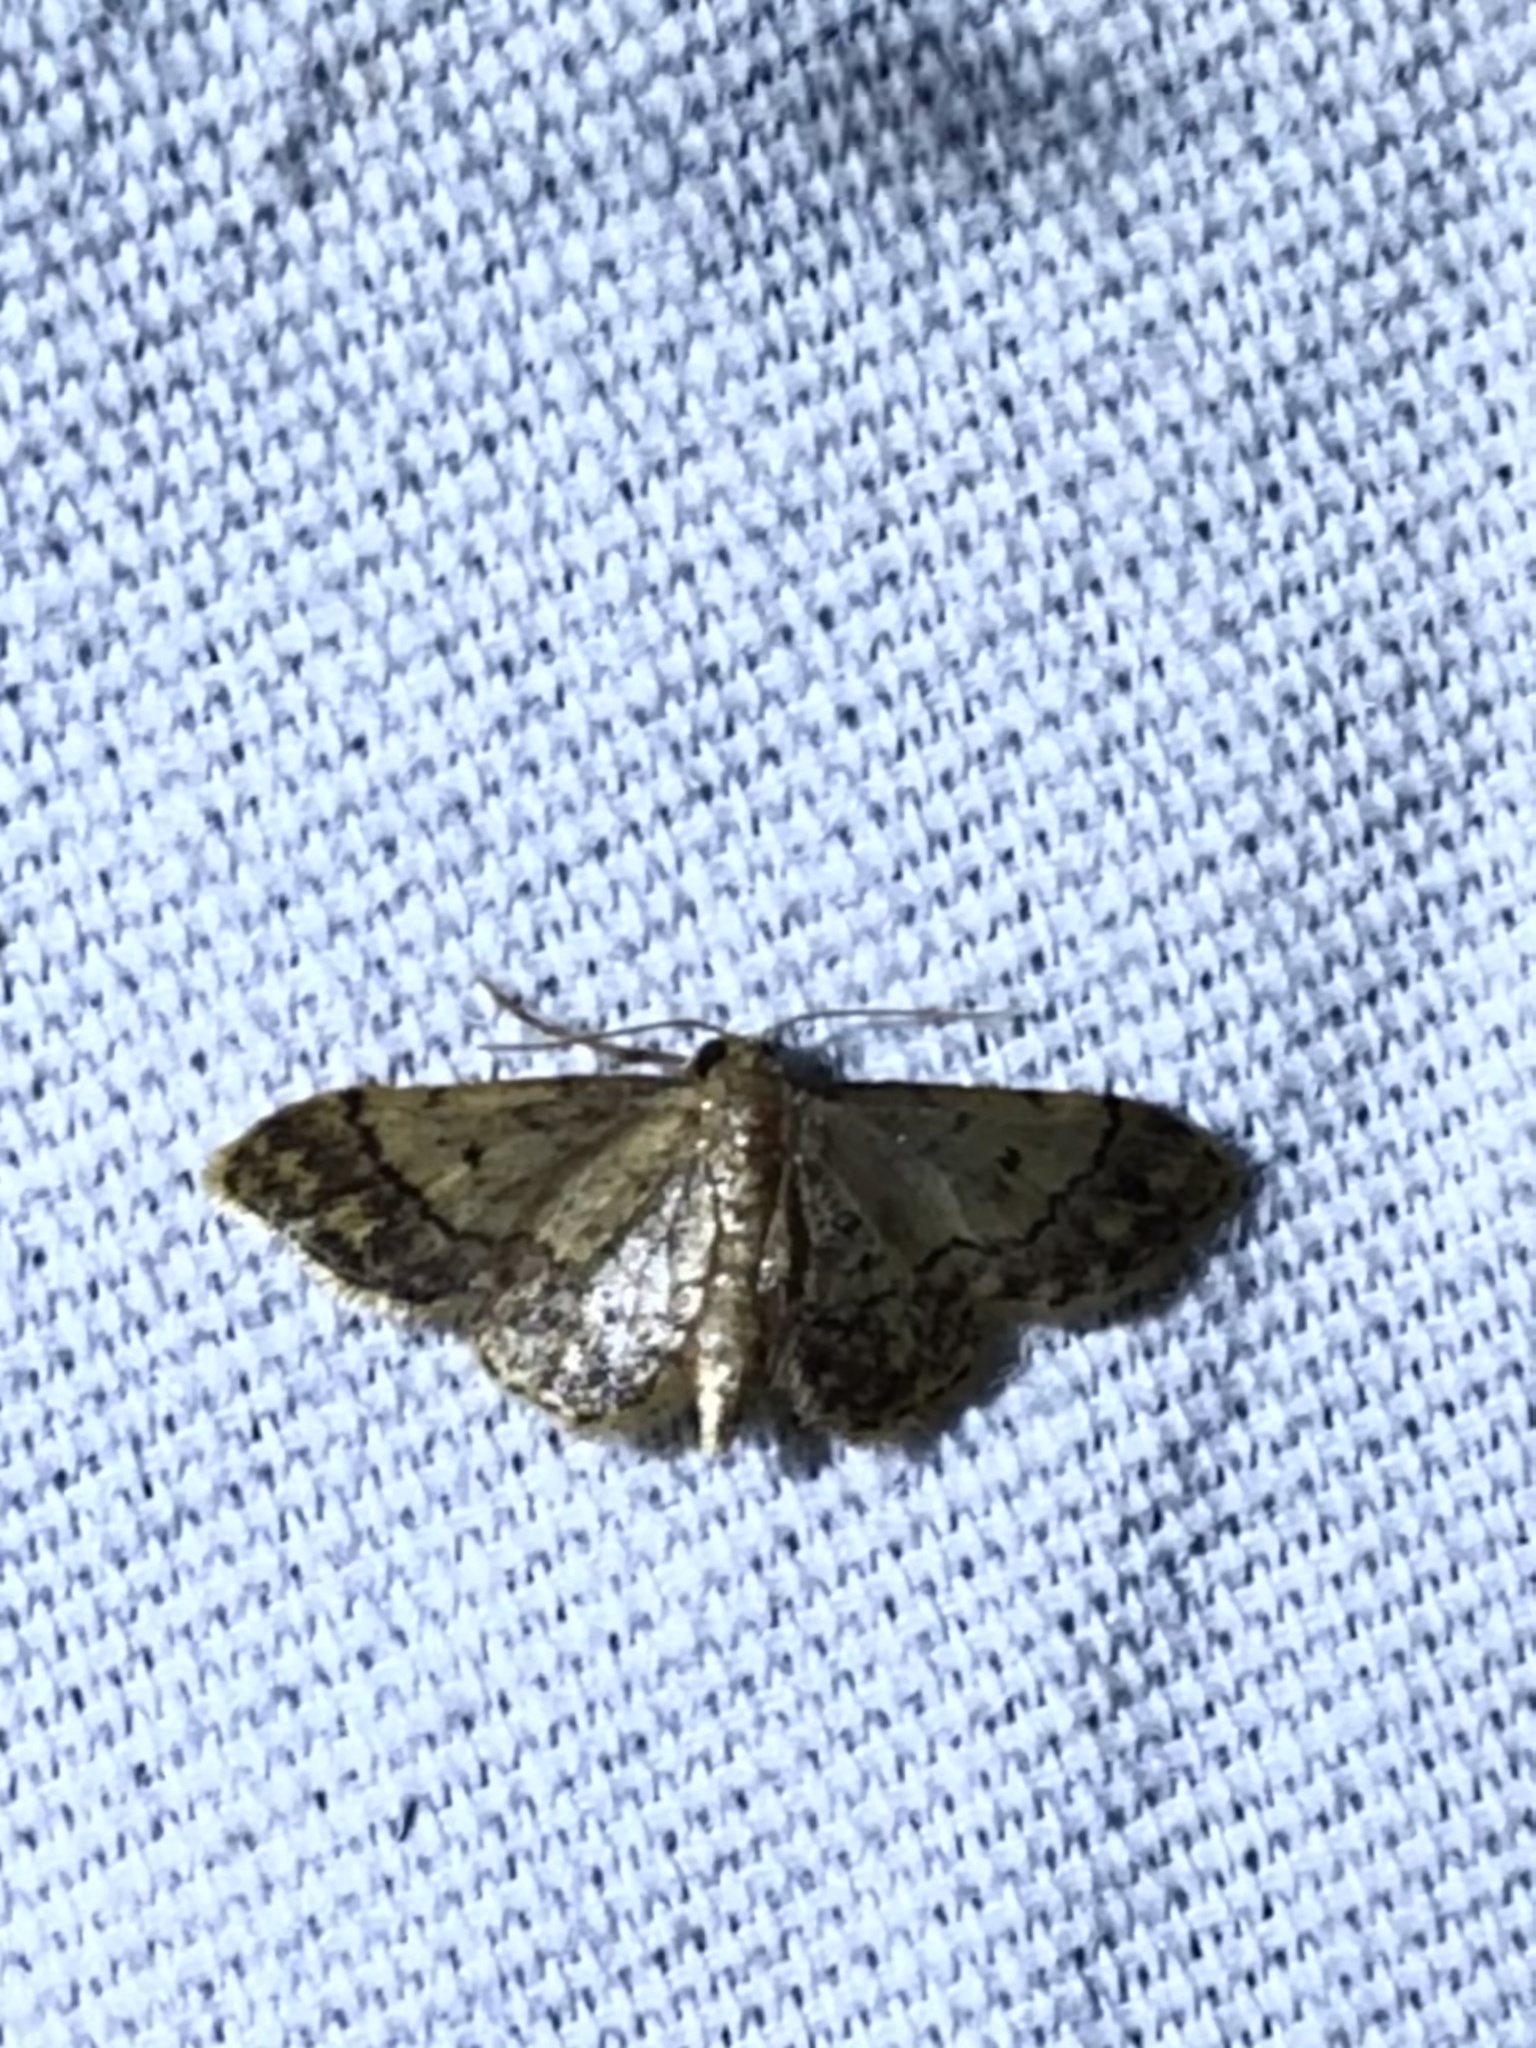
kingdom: Animalia
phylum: Arthropoda
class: Insecta
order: Lepidoptera
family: Geometridae
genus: Idaea
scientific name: Idaea celtima
